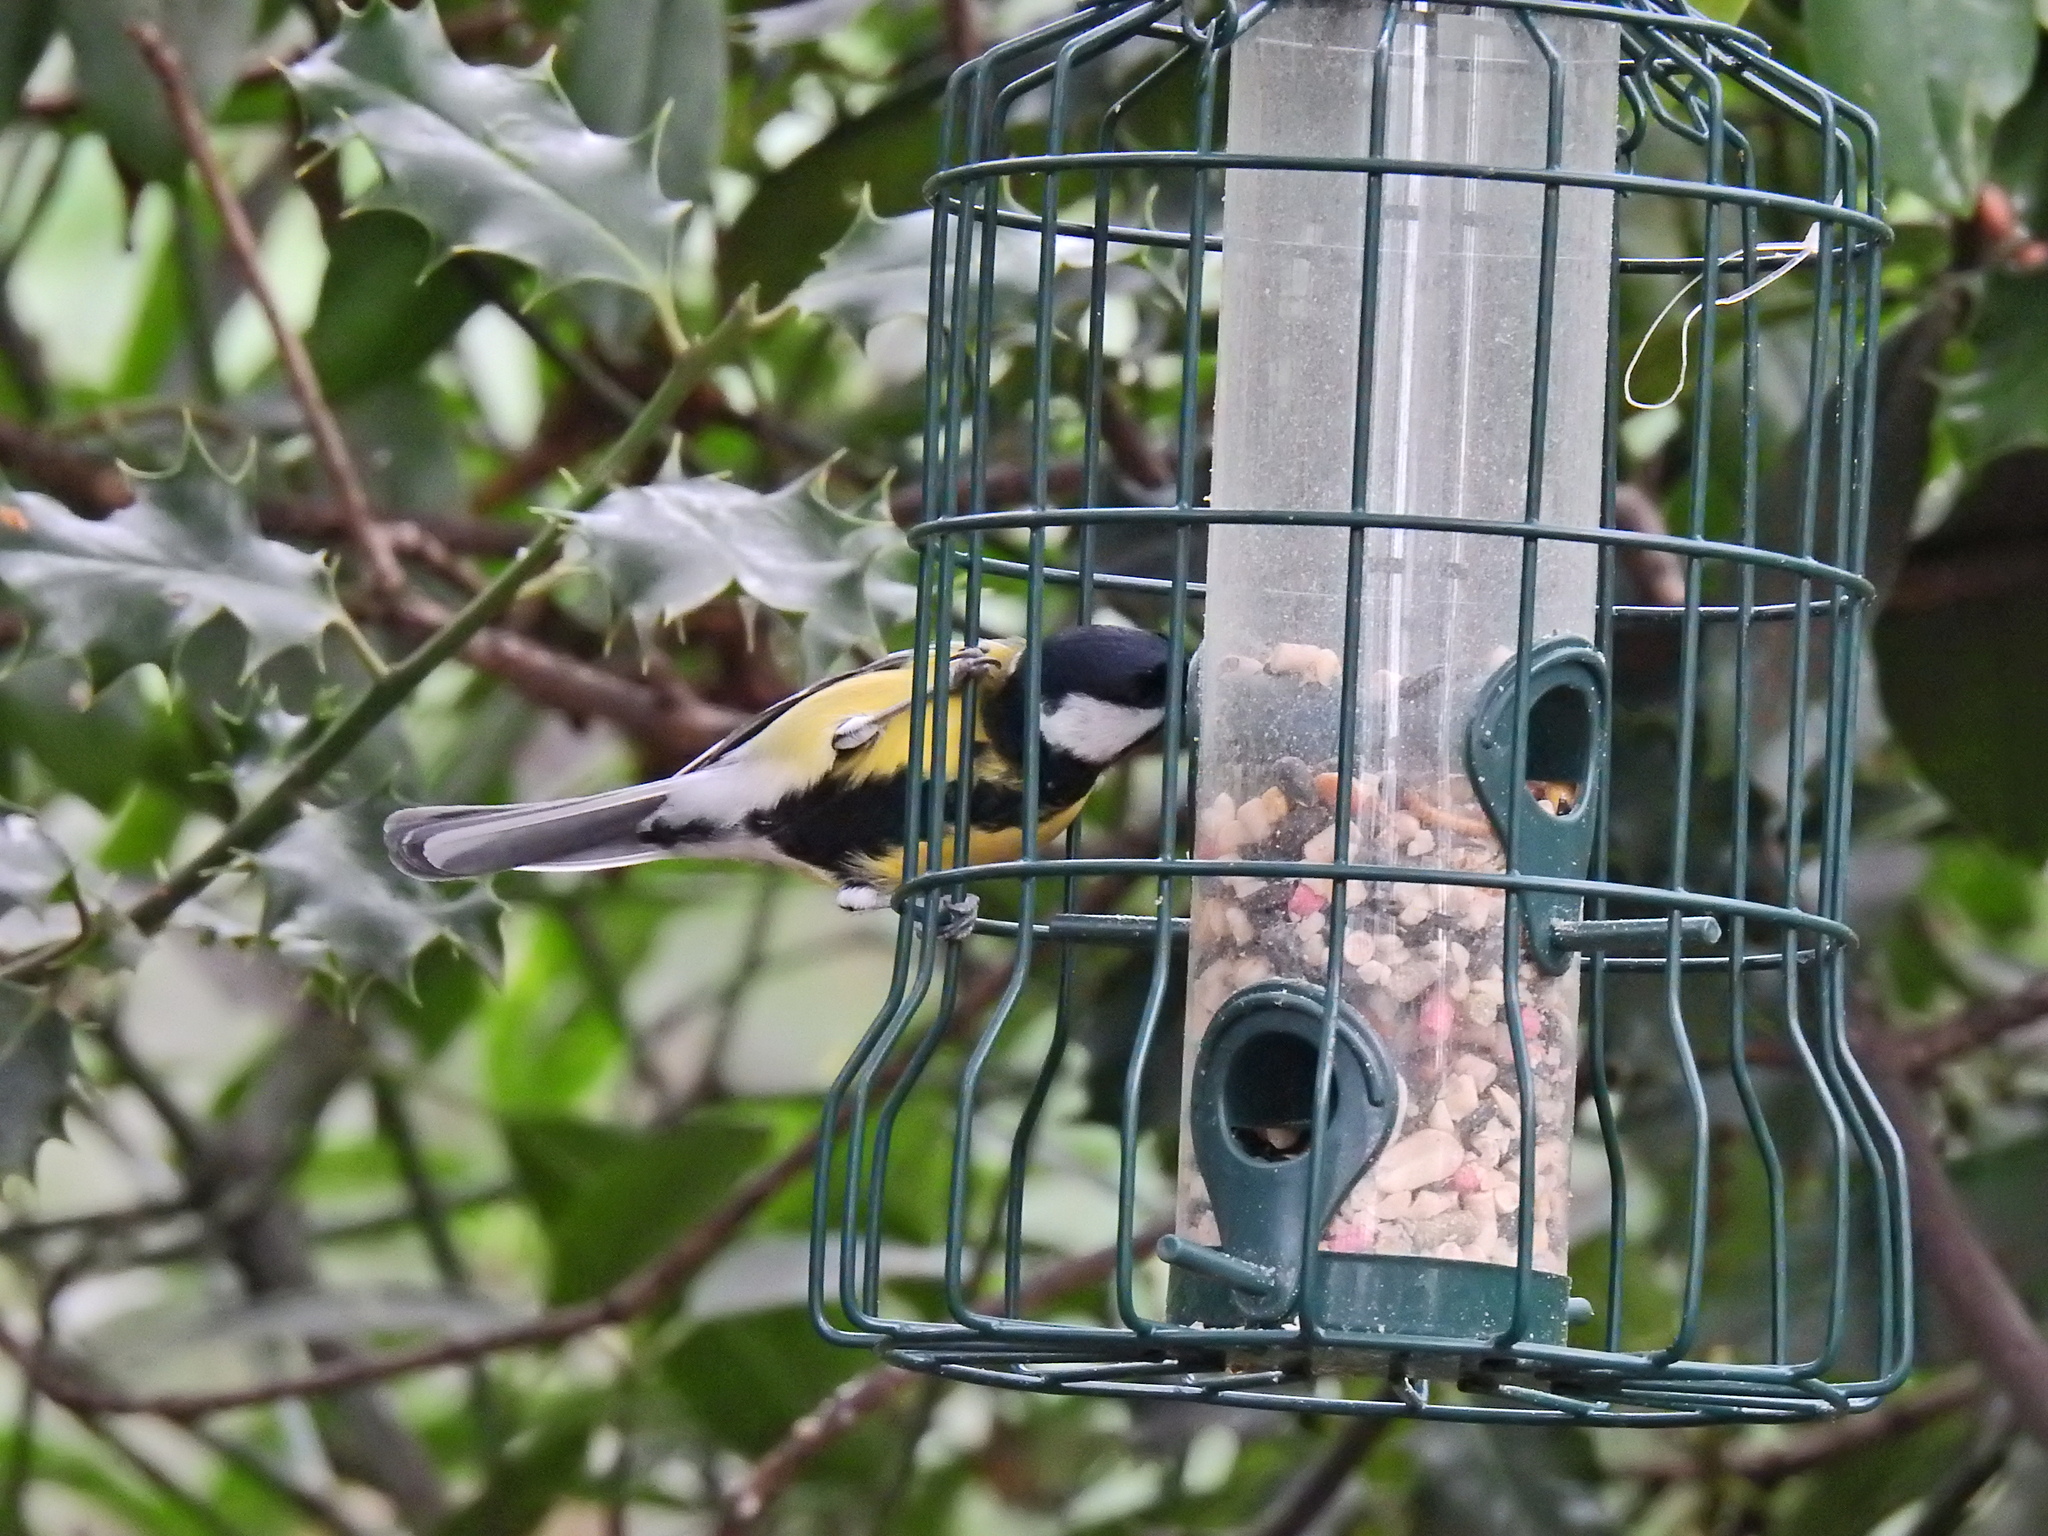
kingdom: Animalia
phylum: Chordata
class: Aves
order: Passeriformes
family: Paridae
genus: Parus
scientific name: Parus major
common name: Great tit
